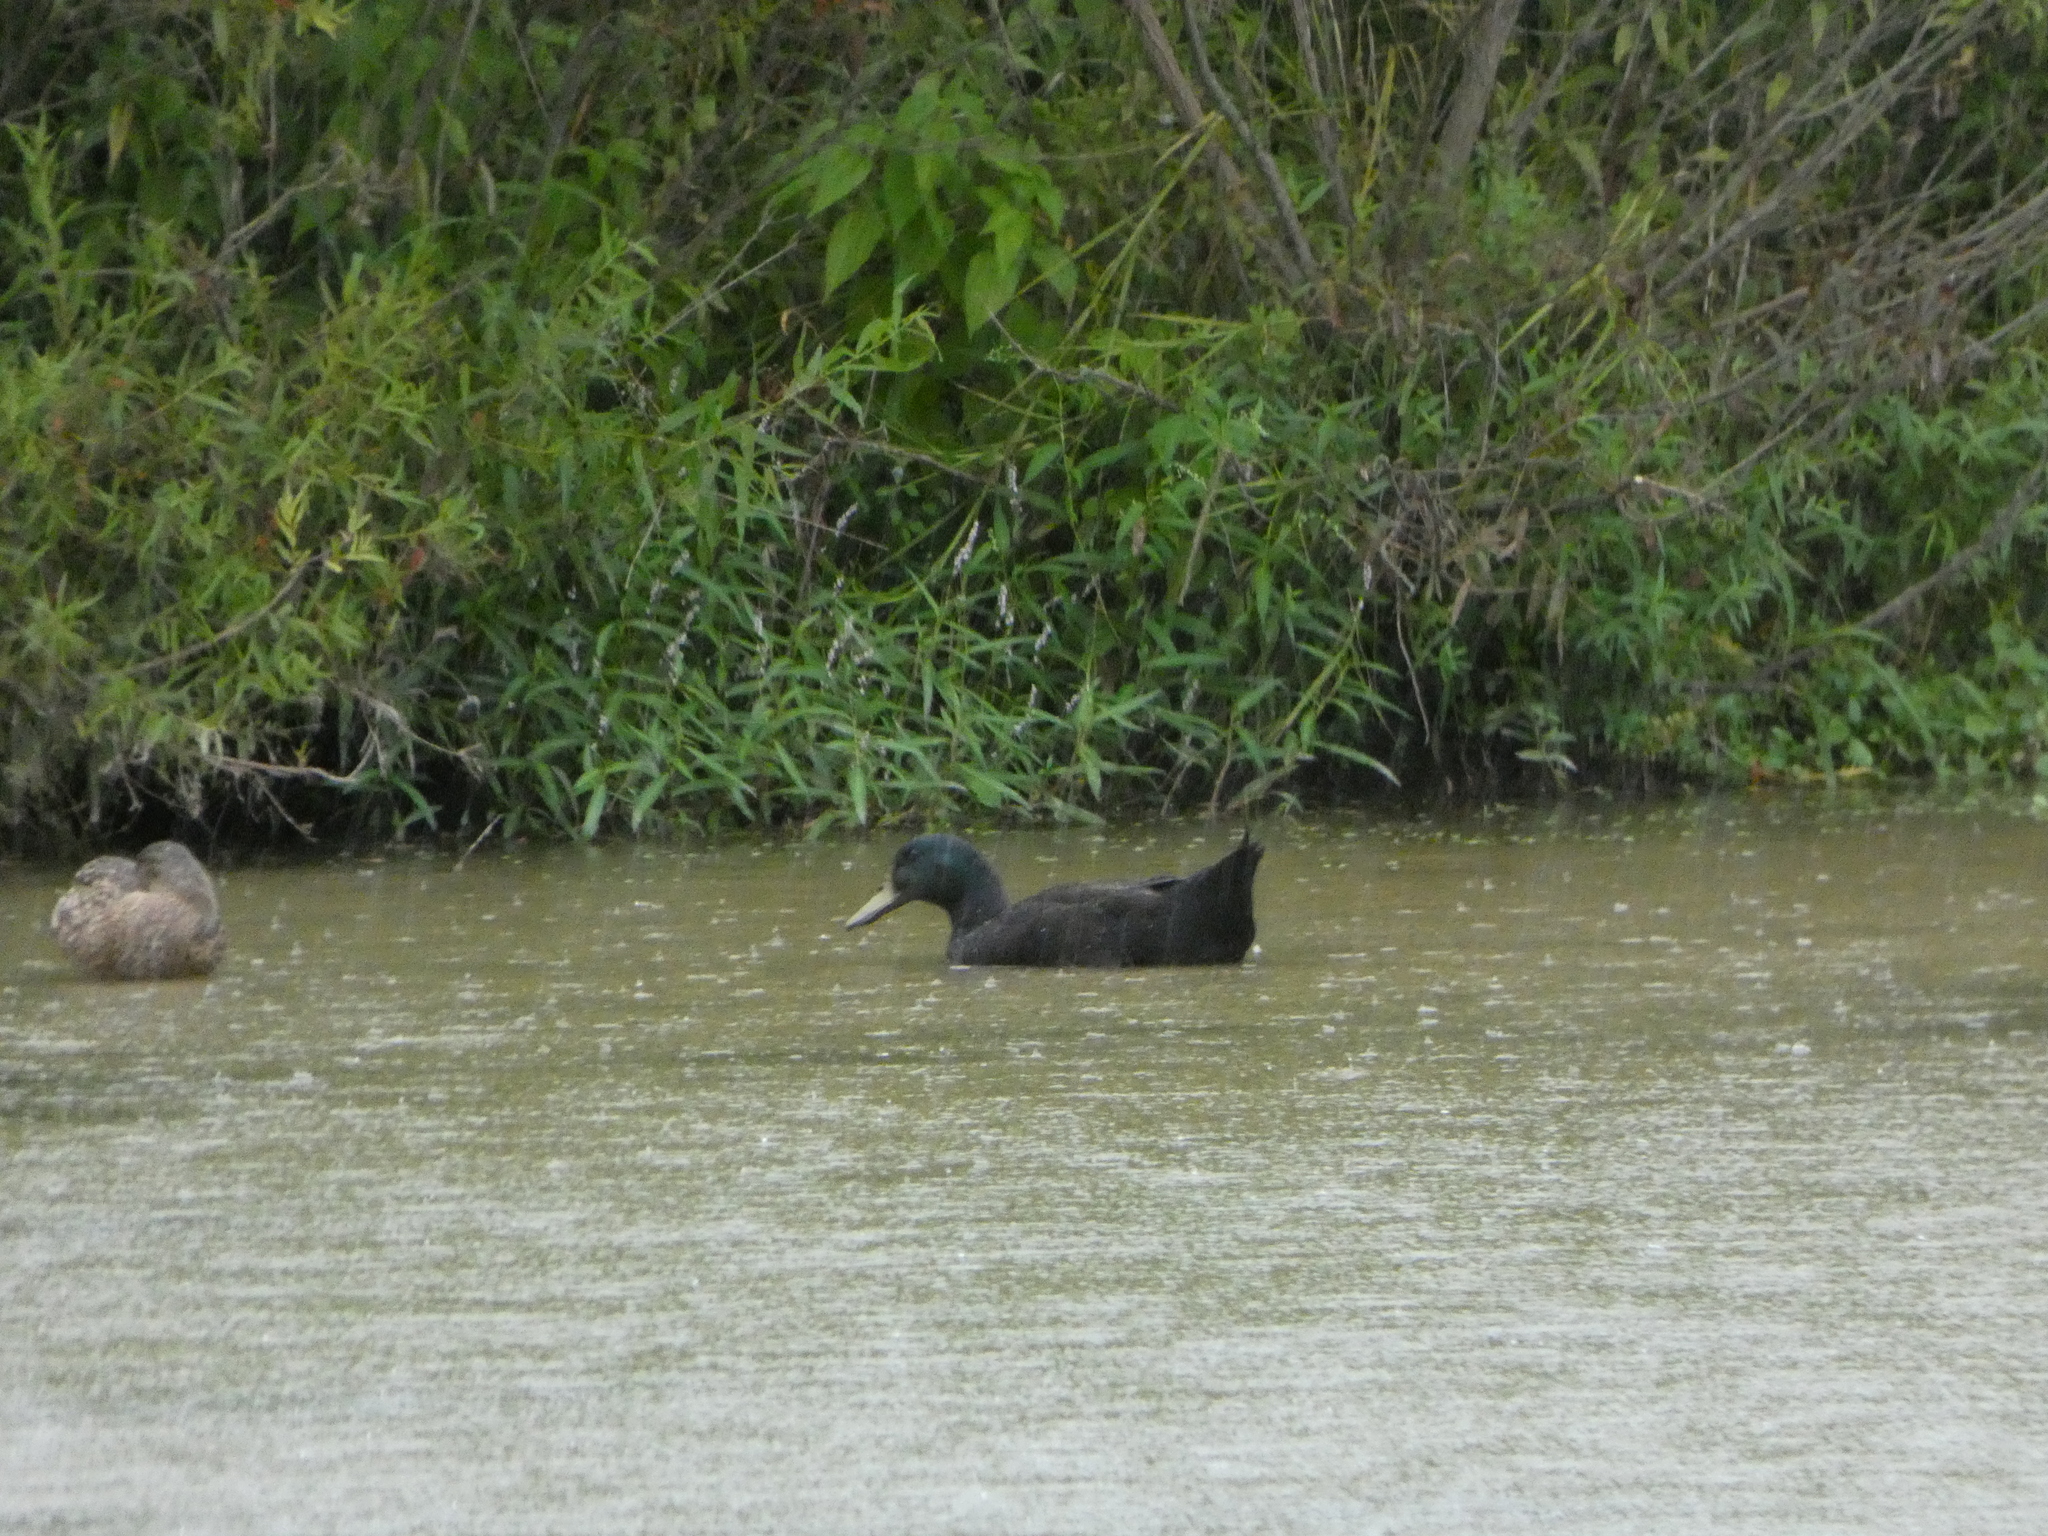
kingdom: Animalia
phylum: Chordata
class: Aves
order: Anseriformes
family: Anatidae
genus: Anas
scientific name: Anas platyrhynchos
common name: Mallard
